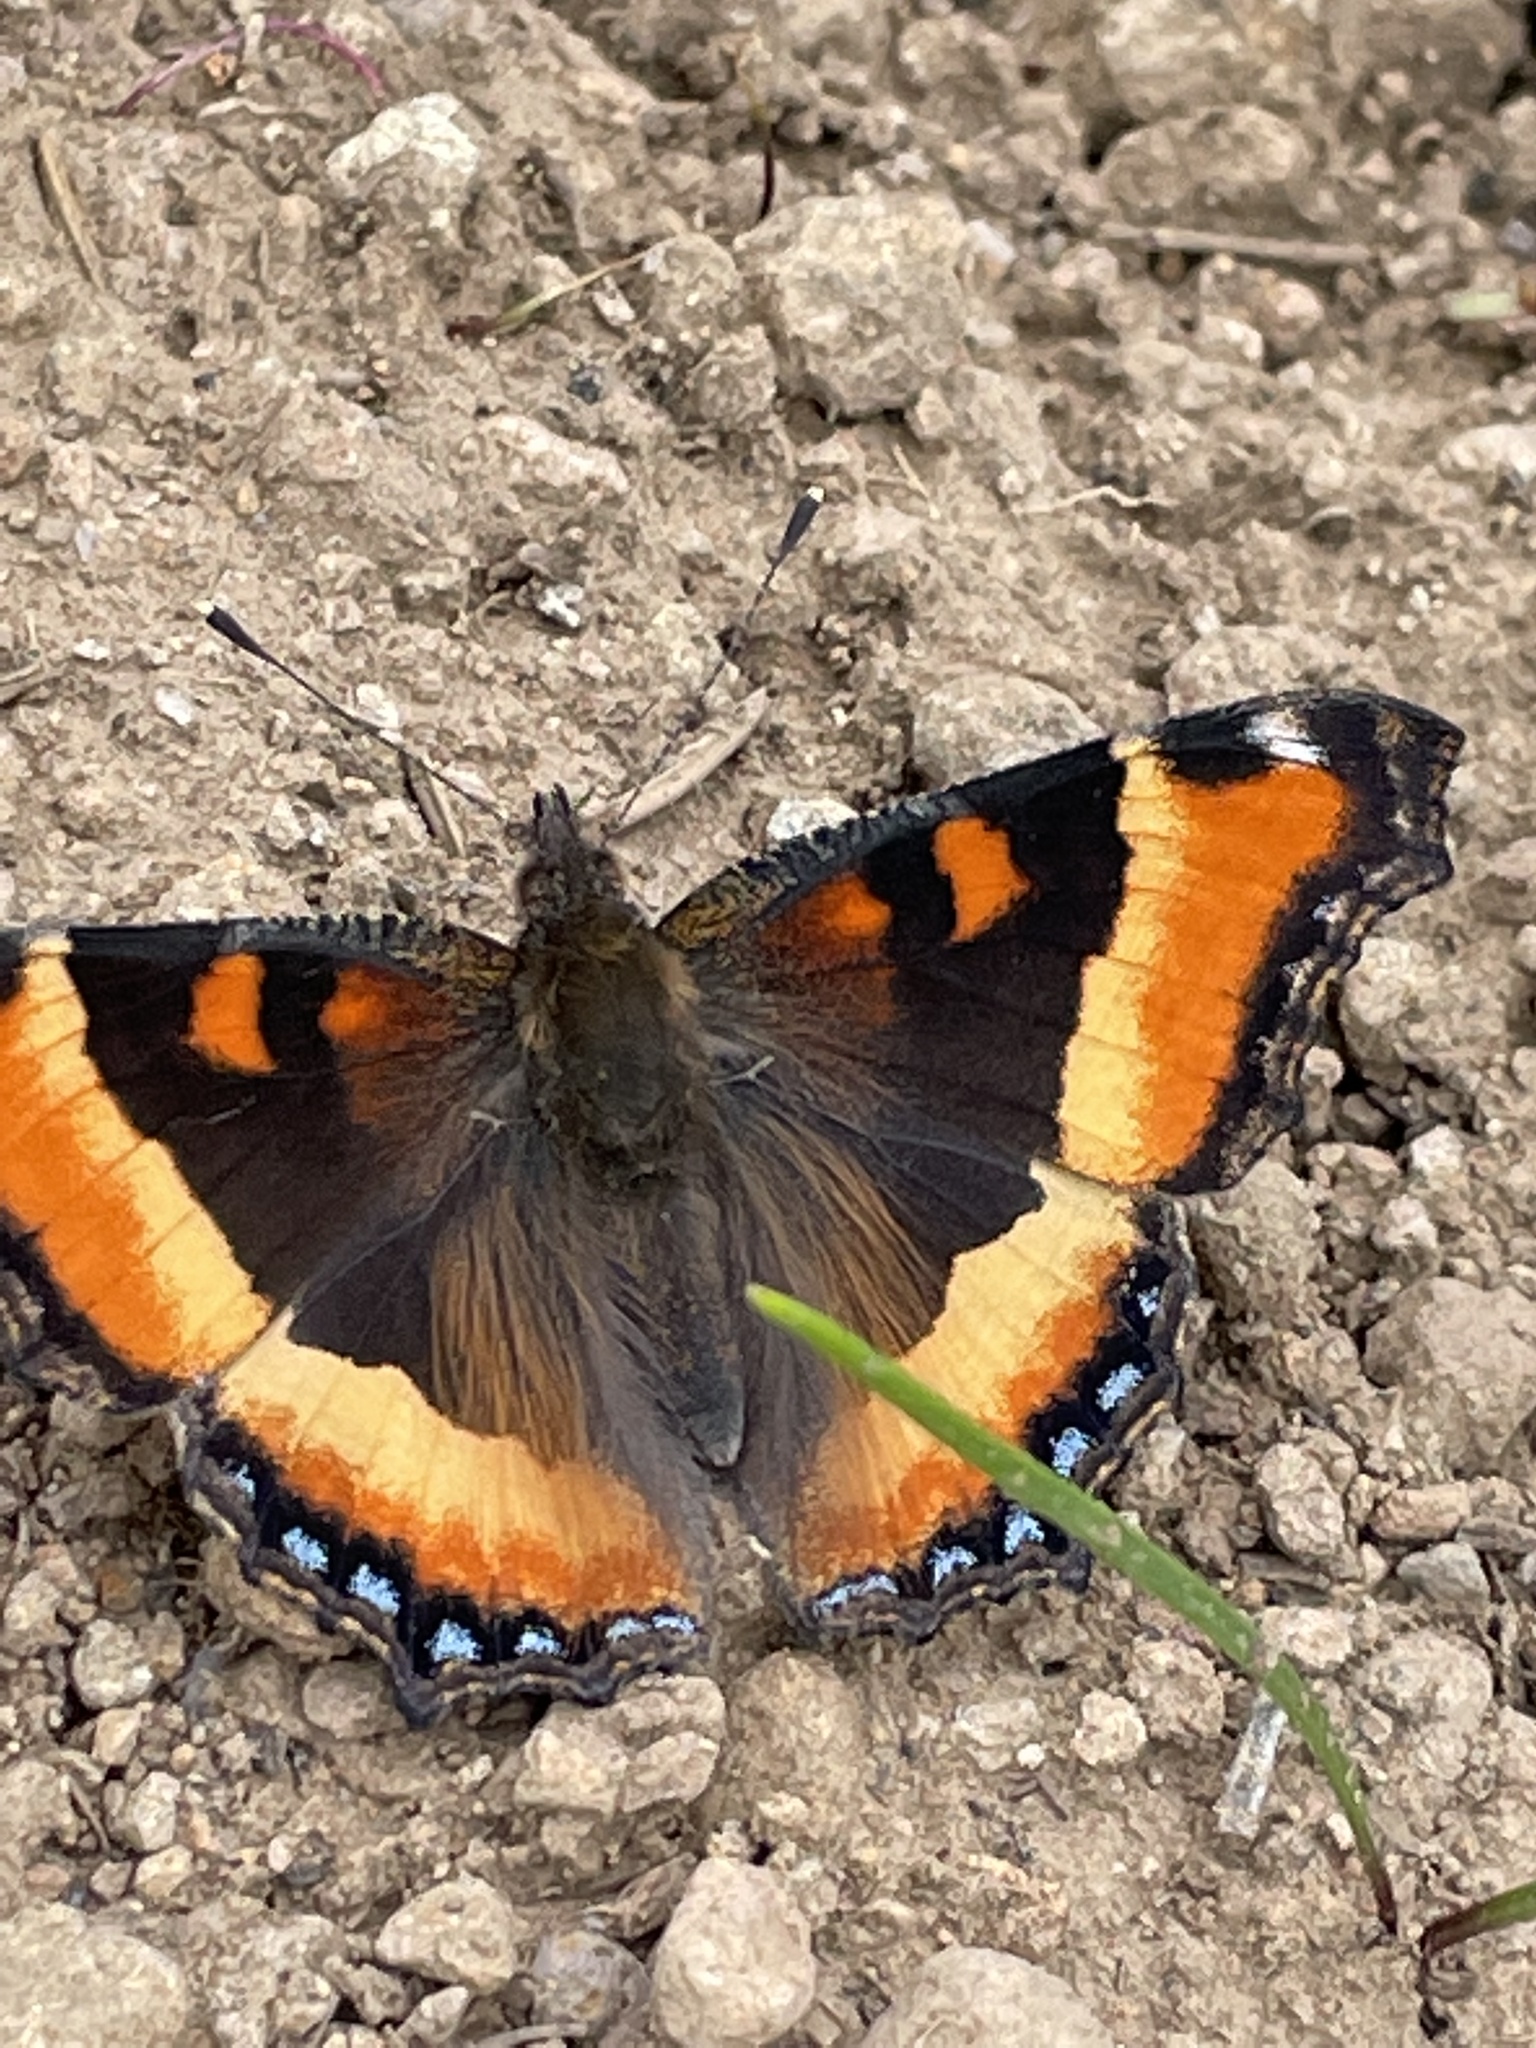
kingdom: Animalia
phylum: Arthropoda
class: Insecta
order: Lepidoptera
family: Nymphalidae
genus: Aglais
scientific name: Aglais milberti
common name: Milbert's tortoiseshell
